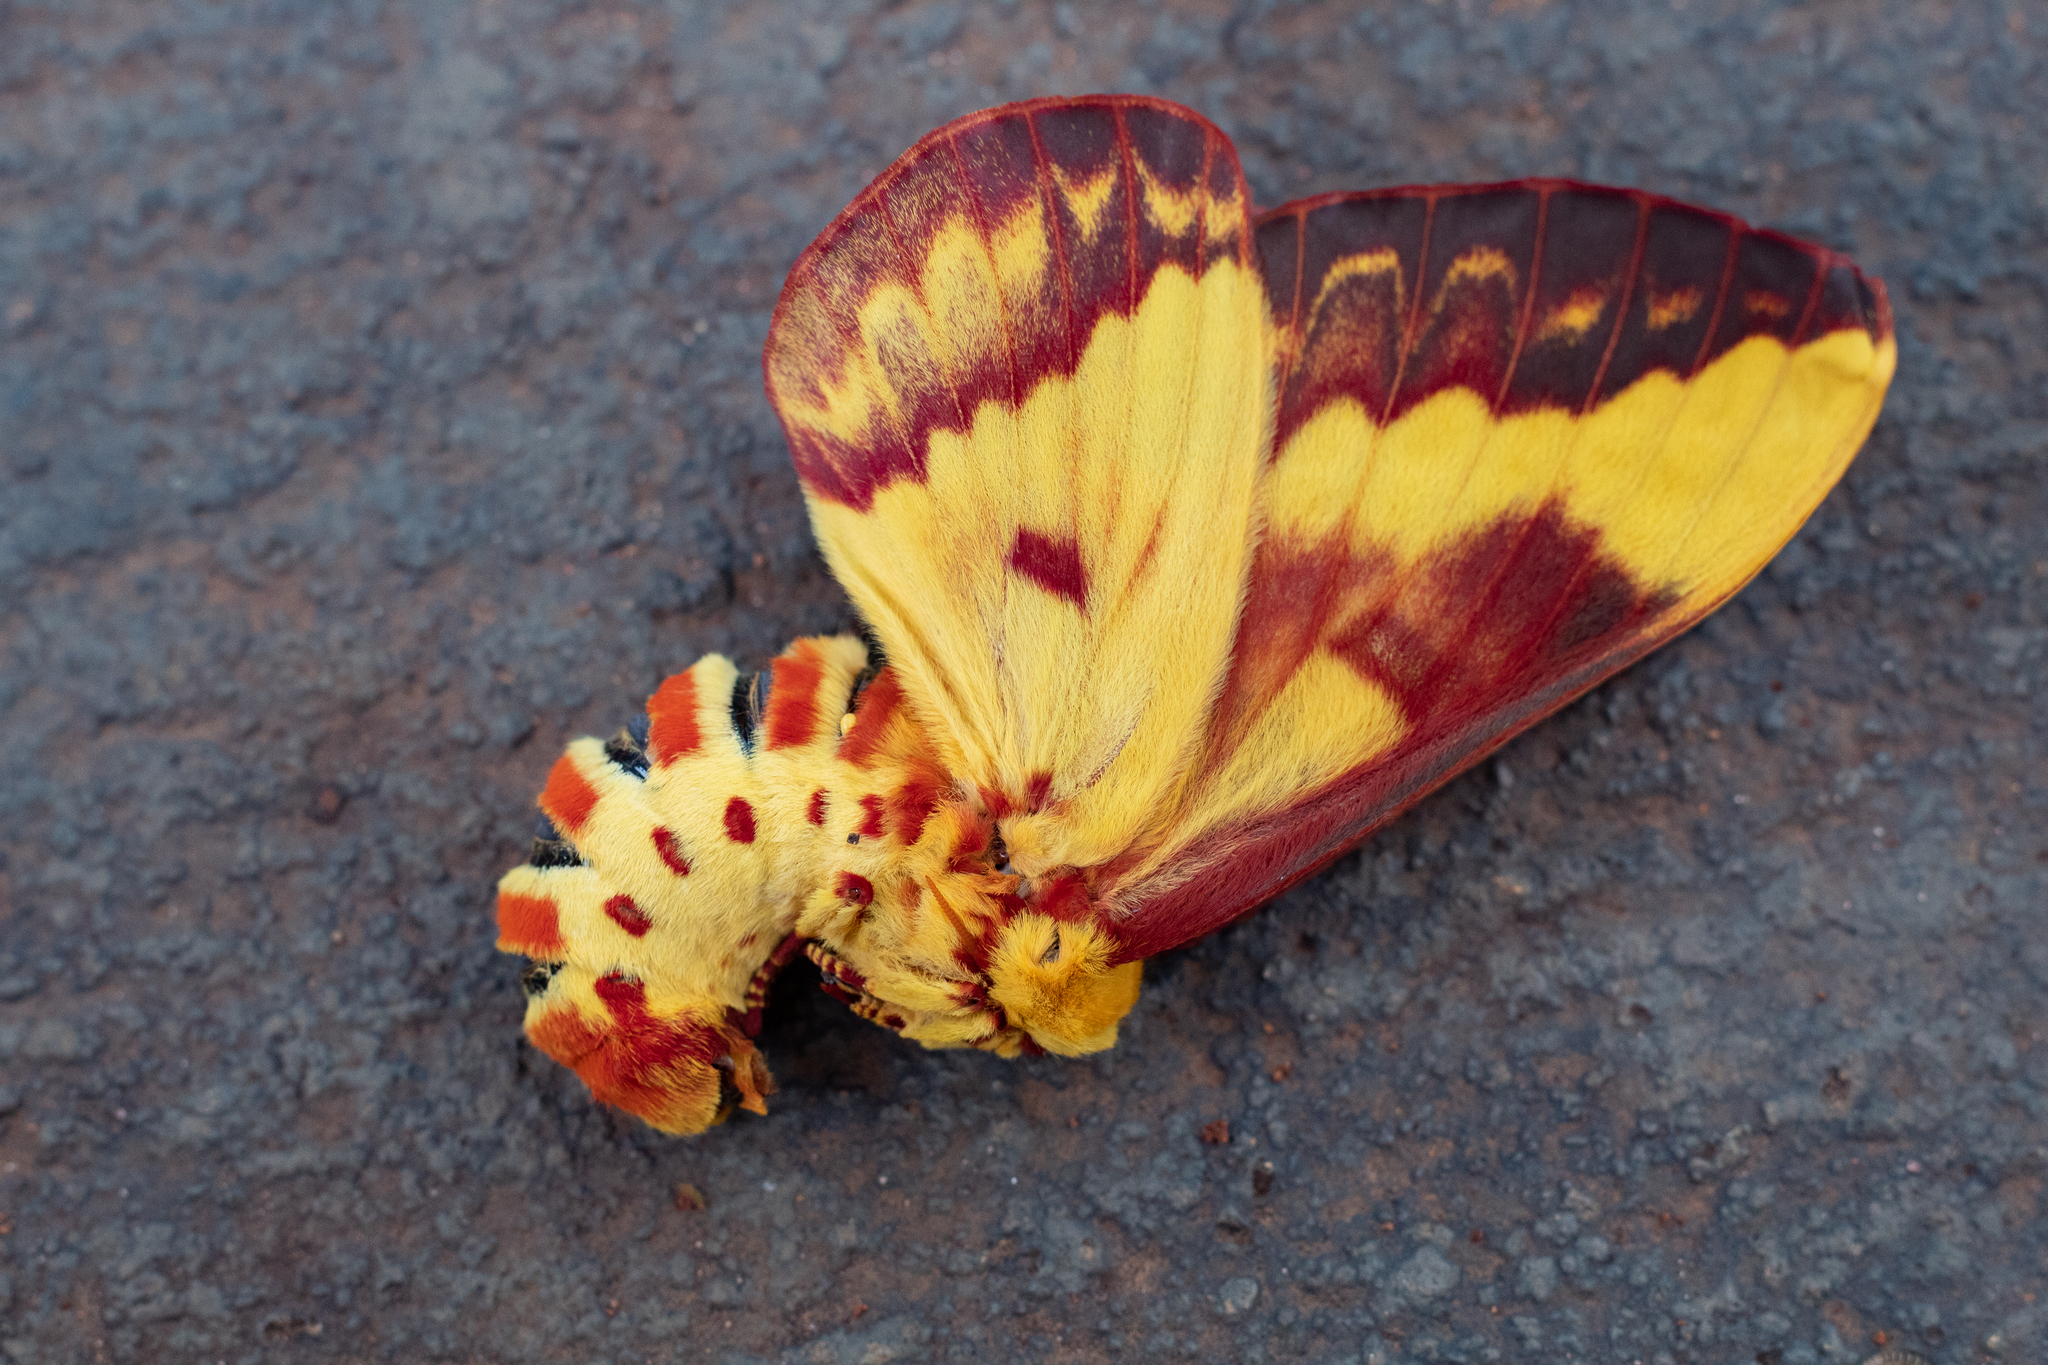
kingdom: Animalia
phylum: Arthropoda
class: Insecta
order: Lepidoptera
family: Saturniidae
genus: Citheronia
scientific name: Citheronia laocoon
